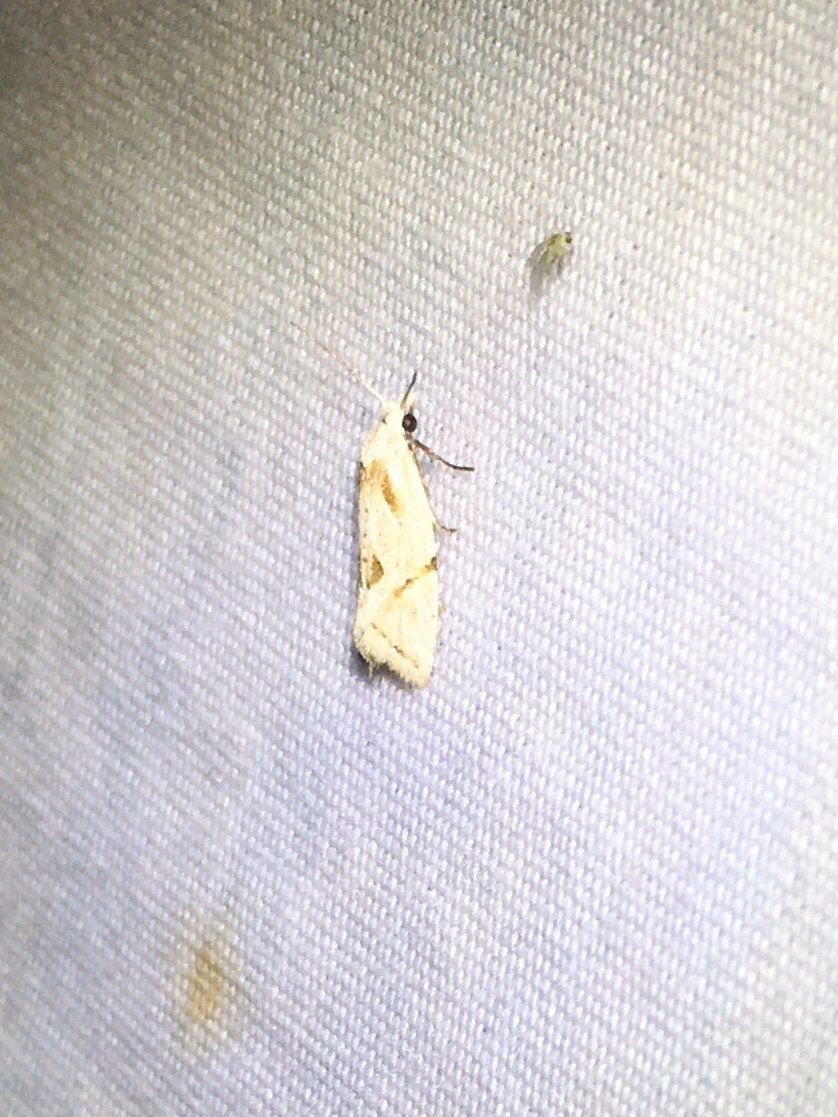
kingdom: Animalia
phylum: Arthropoda
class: Insecta
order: Lepidoptera
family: Tortricidae
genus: Aethes
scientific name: Aethes seriatana
